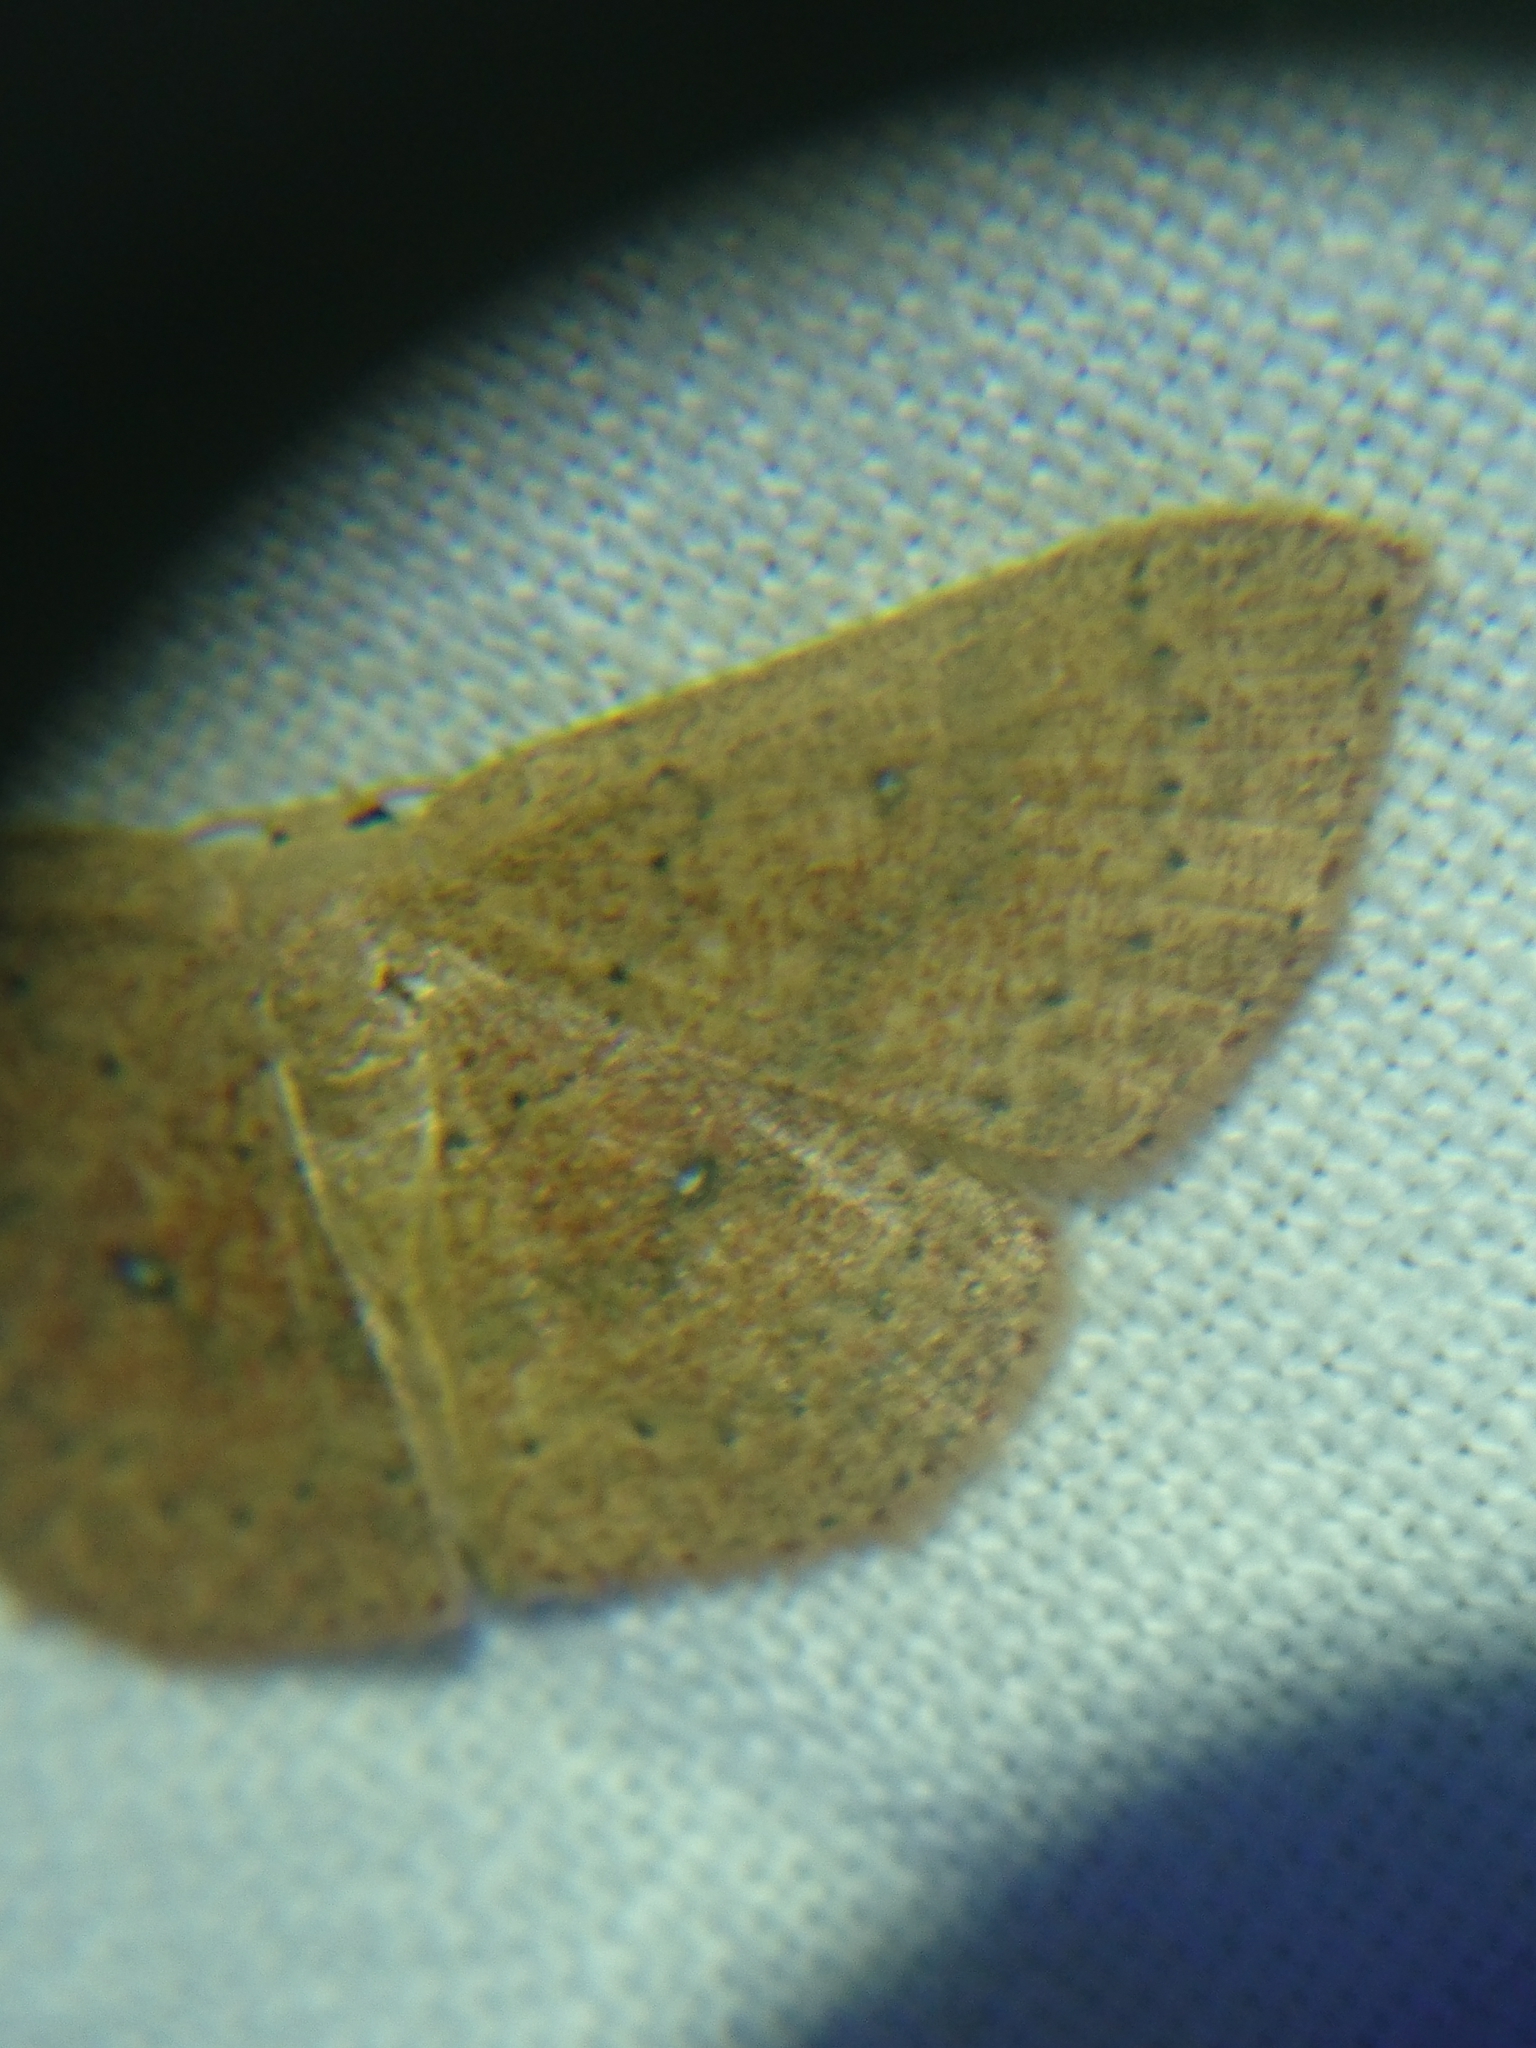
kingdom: Animalia
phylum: Arthropoda
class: Insecta
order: Lepidoptera
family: Geometridae
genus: Cyclophora
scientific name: Cyclophora packardi
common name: Packard's wave
